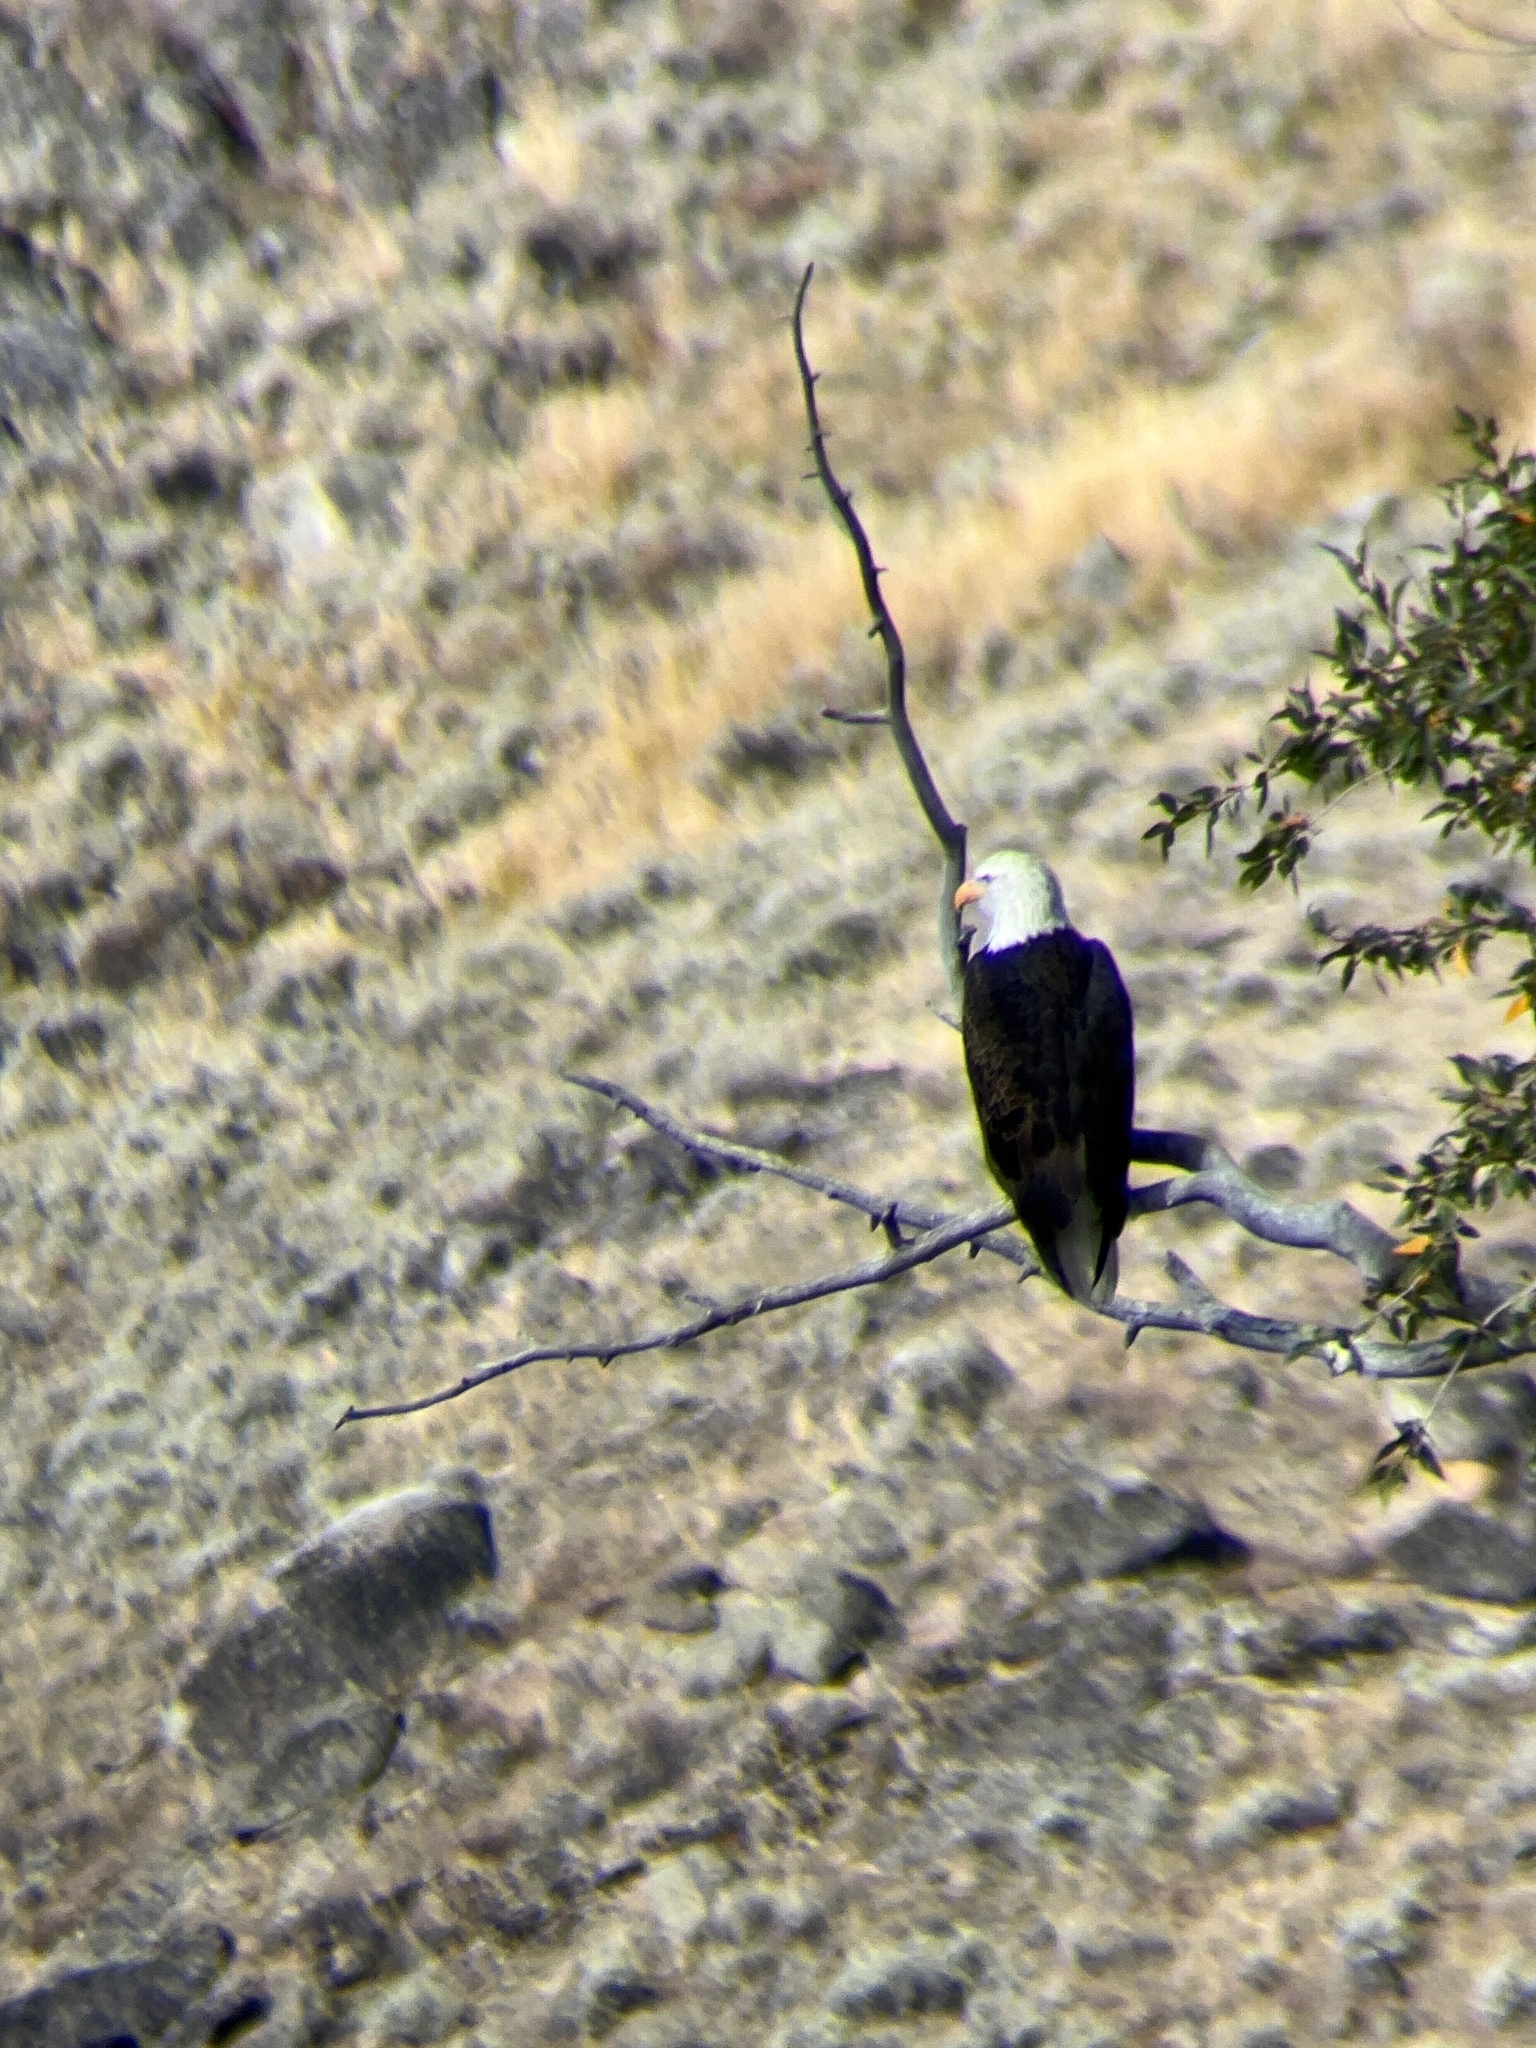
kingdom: Animalia
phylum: Chordata
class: Aves
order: Accipitriformes
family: Accipitridae
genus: Haliaeetus
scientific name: Haliaeetus leucocephalus
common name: Bald eagle
